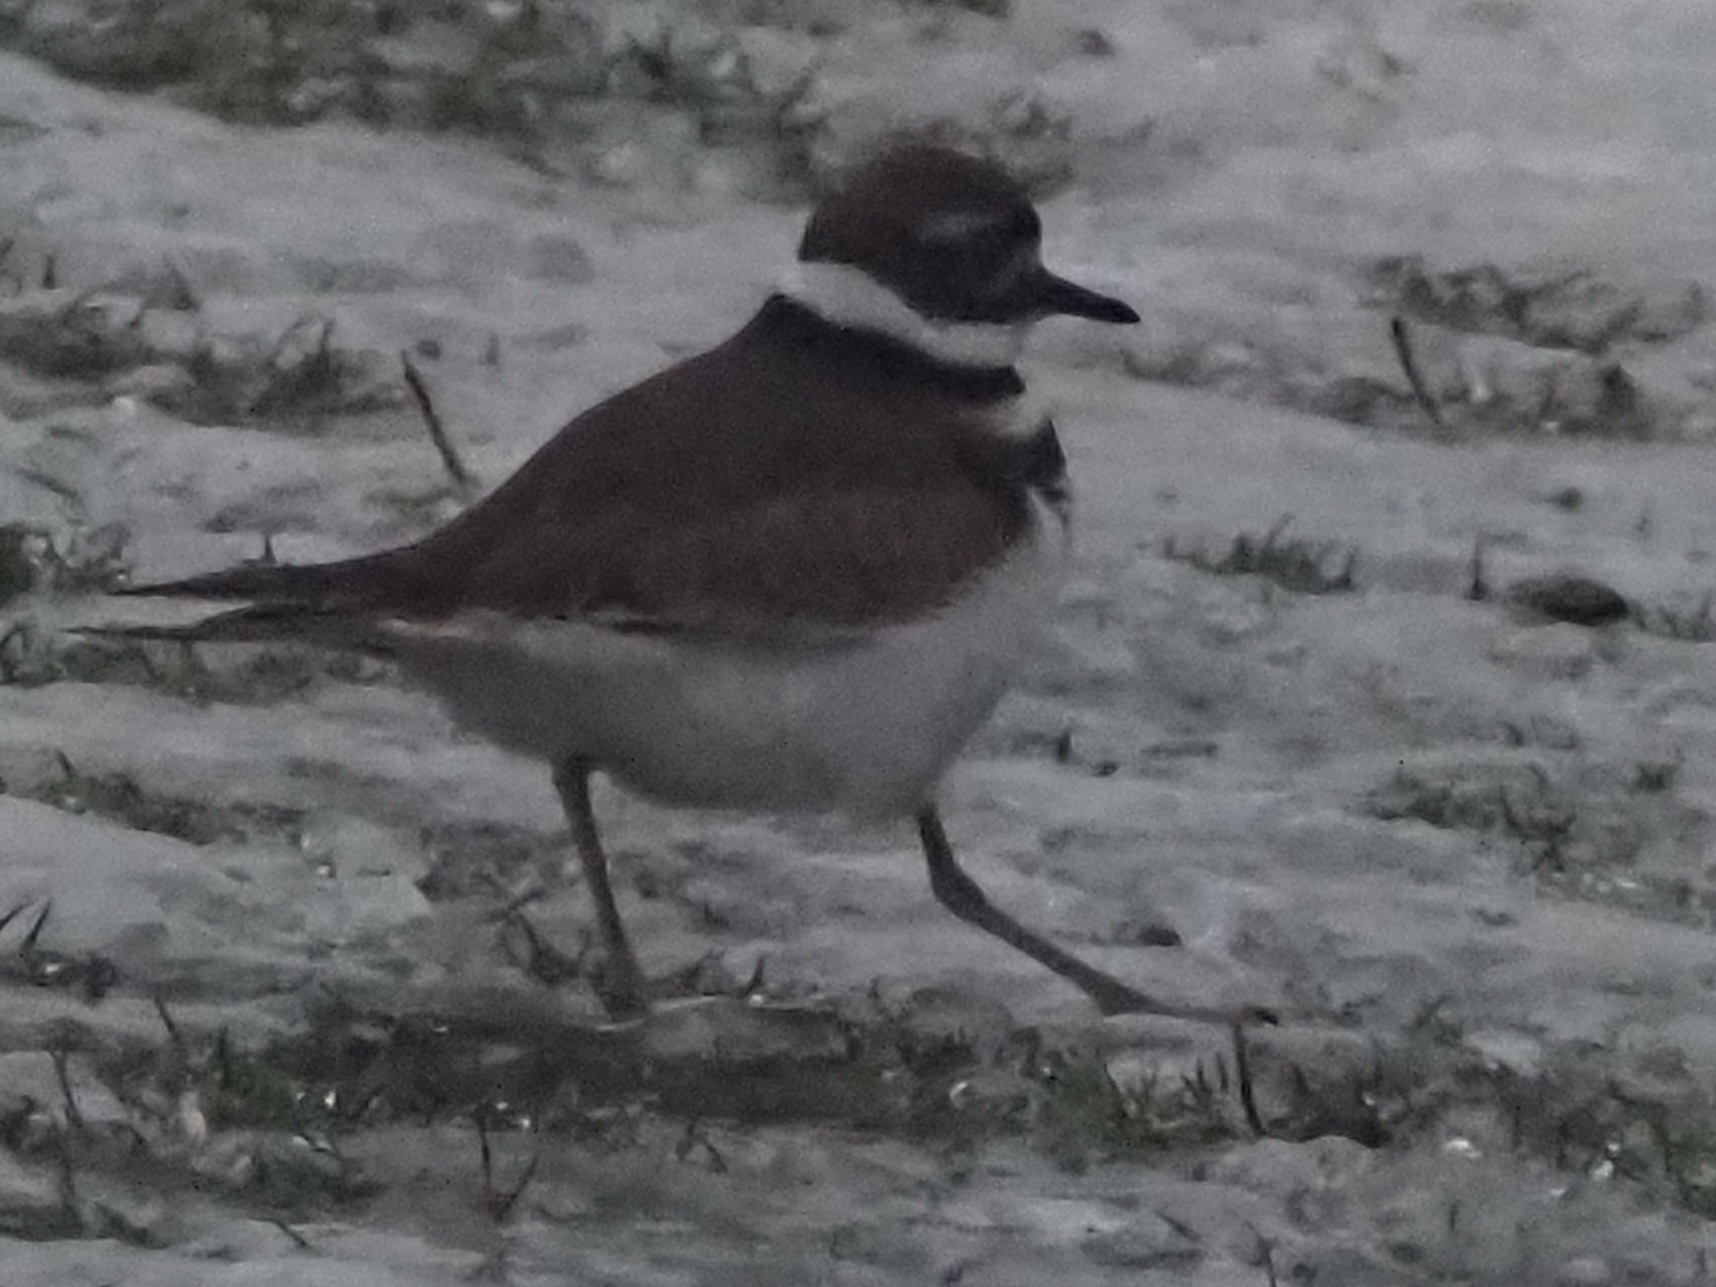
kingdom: Animalia
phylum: Chordata
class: Aves
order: Charadriiformes
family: Charadriidae
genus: Charadrius
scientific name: Charadrius vociferus
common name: Killdeer
